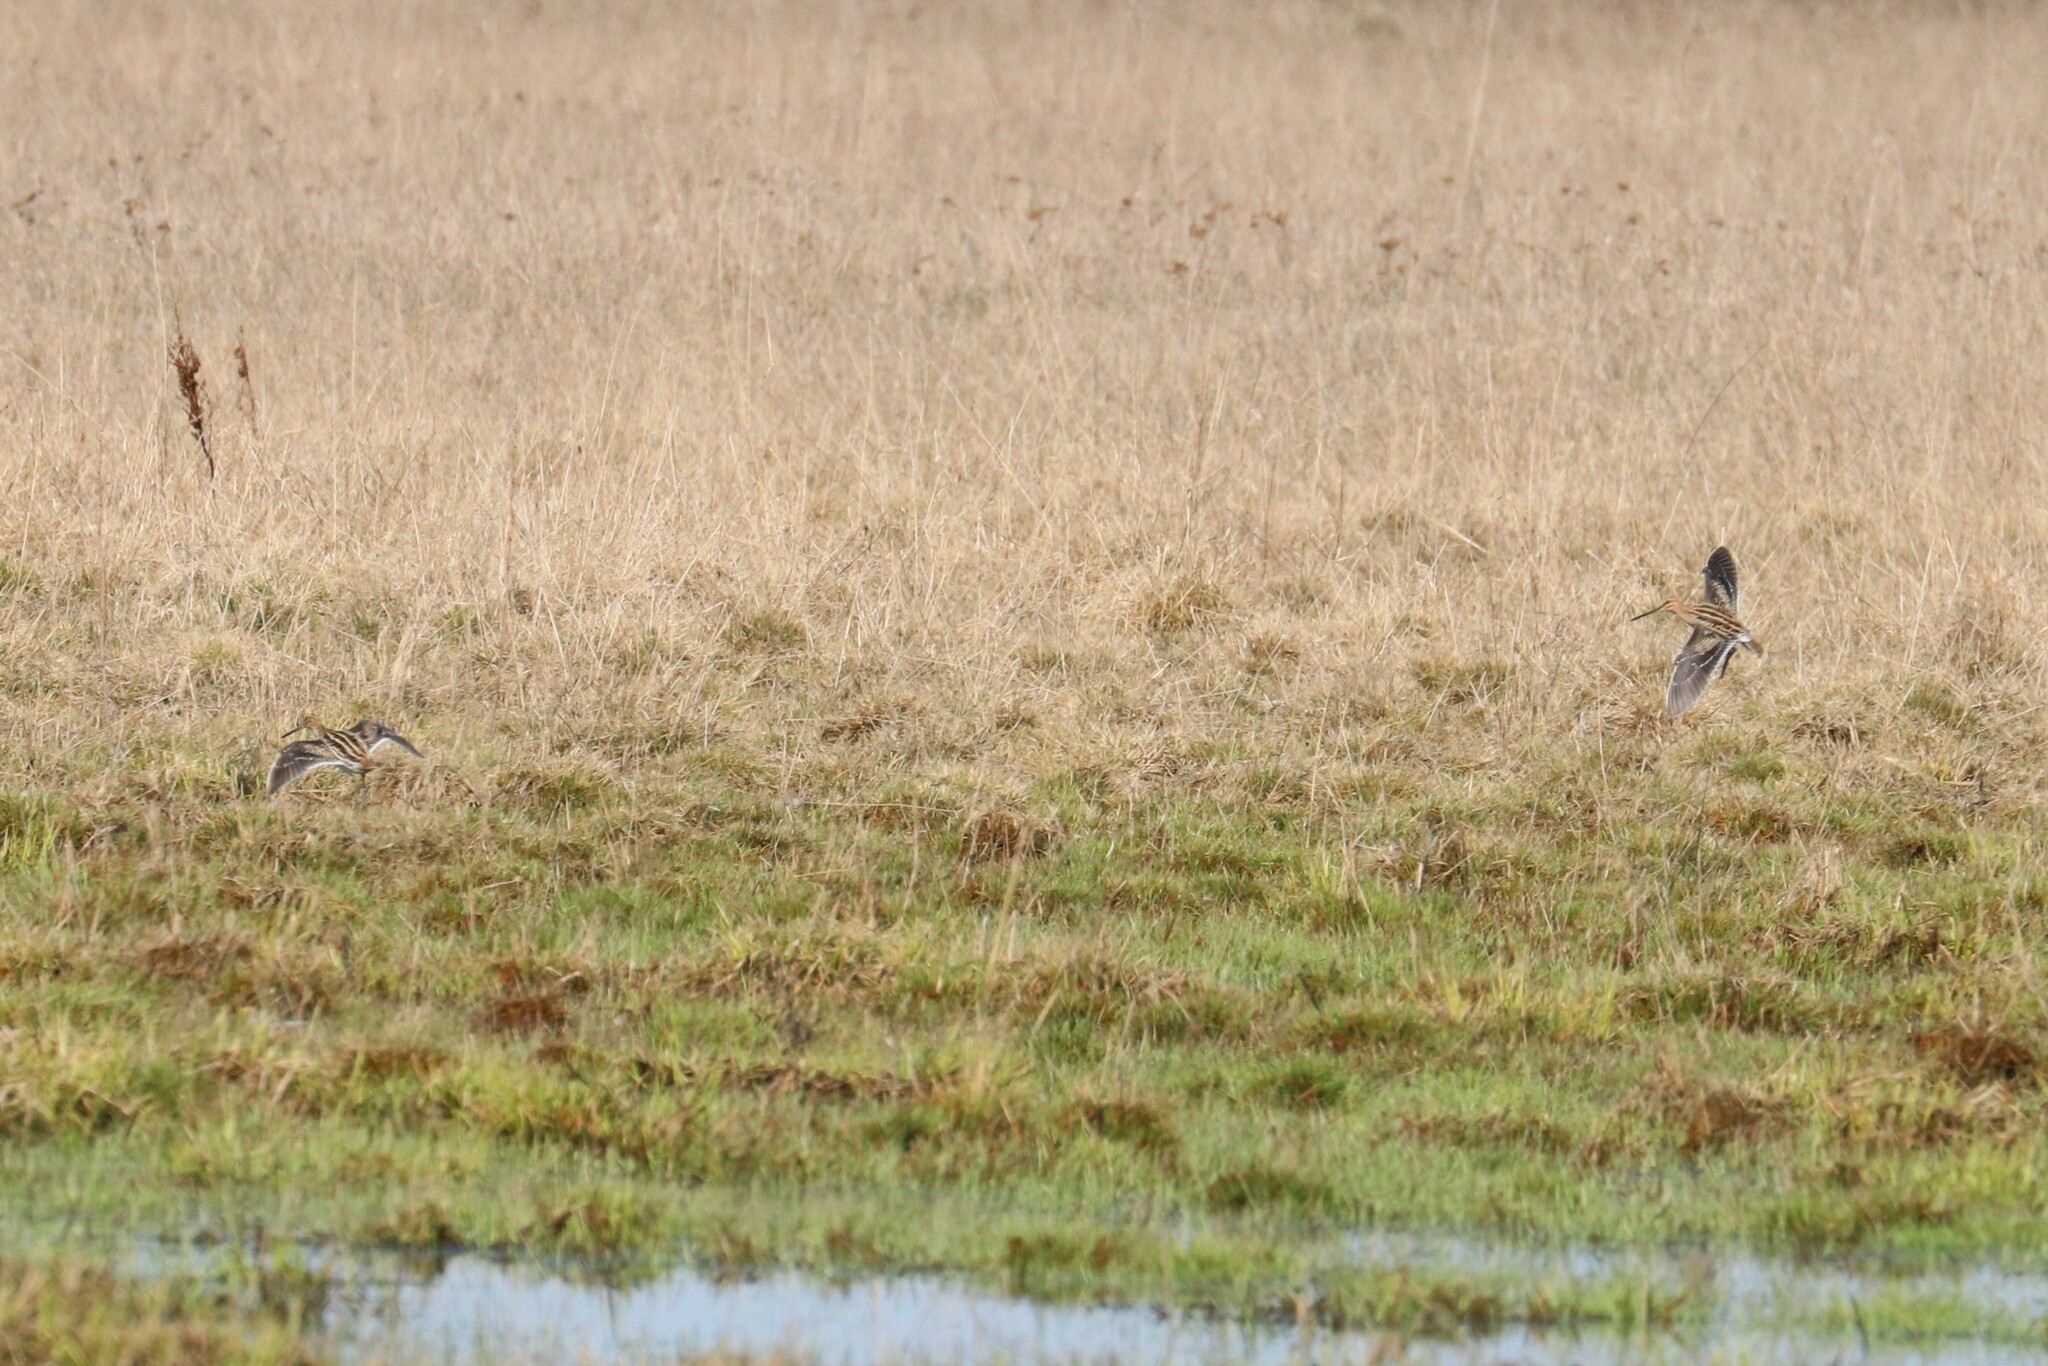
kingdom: Animalia
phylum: Chordata
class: Aves
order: Charadriiformes
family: Scolopacidae
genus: Gallinago
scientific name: Gallinago gallinago
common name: Common snipe
